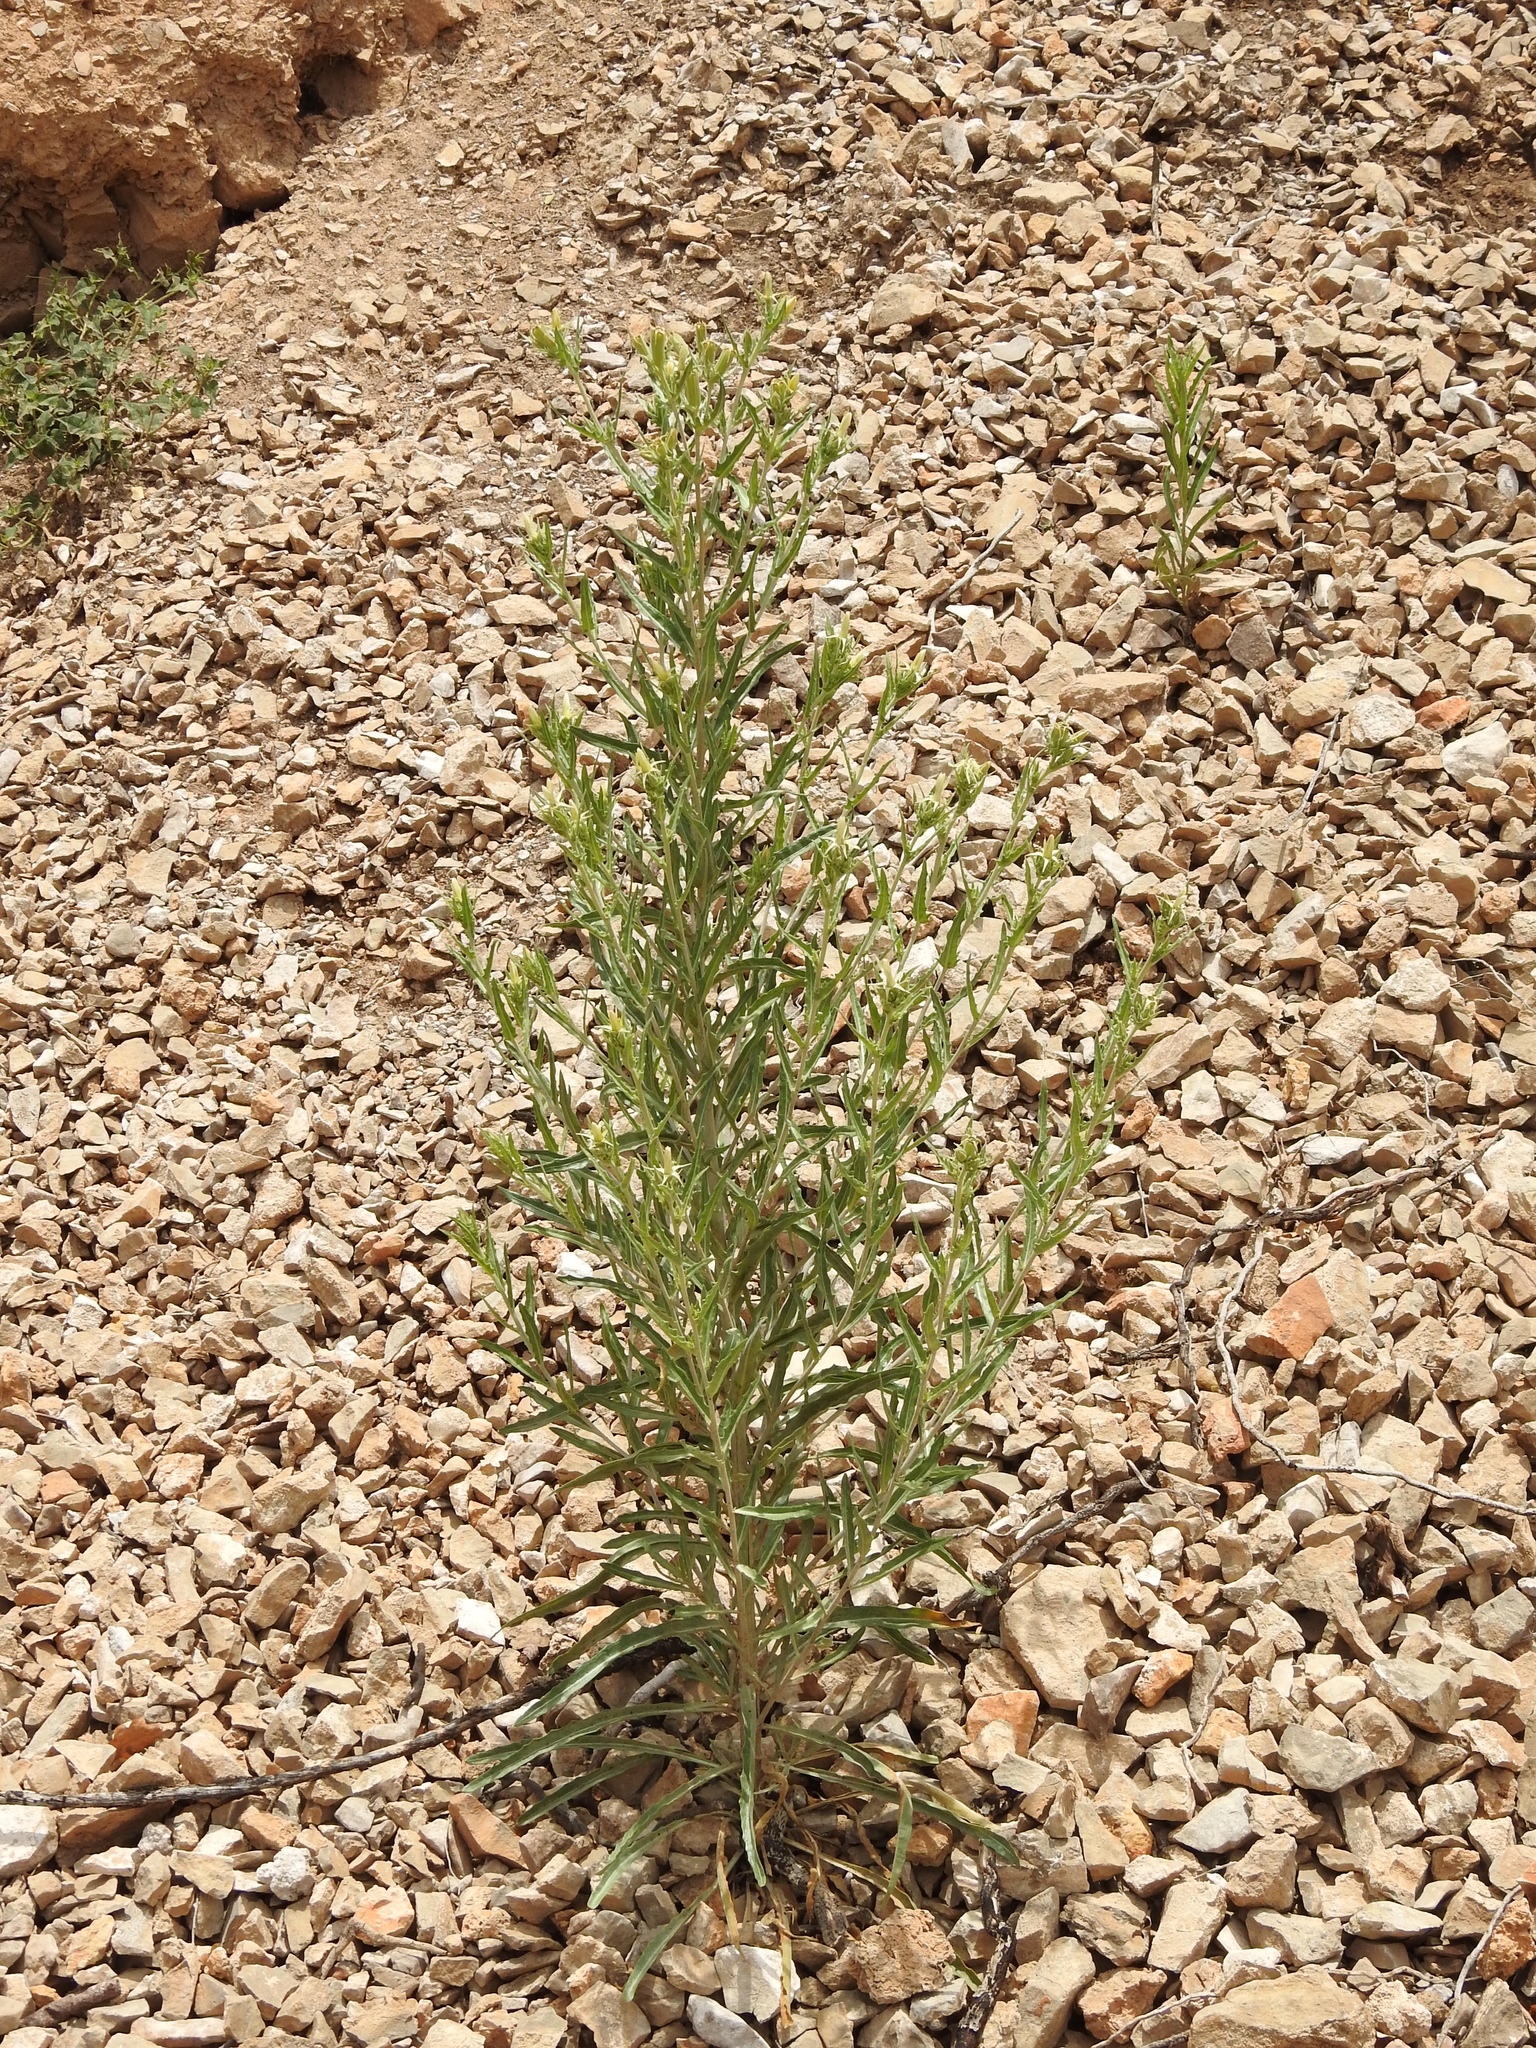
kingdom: Plantae
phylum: Tracheophyta
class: Magnoliopsida
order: Cornales
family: Loasaceae
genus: Mentzelia
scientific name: Mentzelia rusbyi
